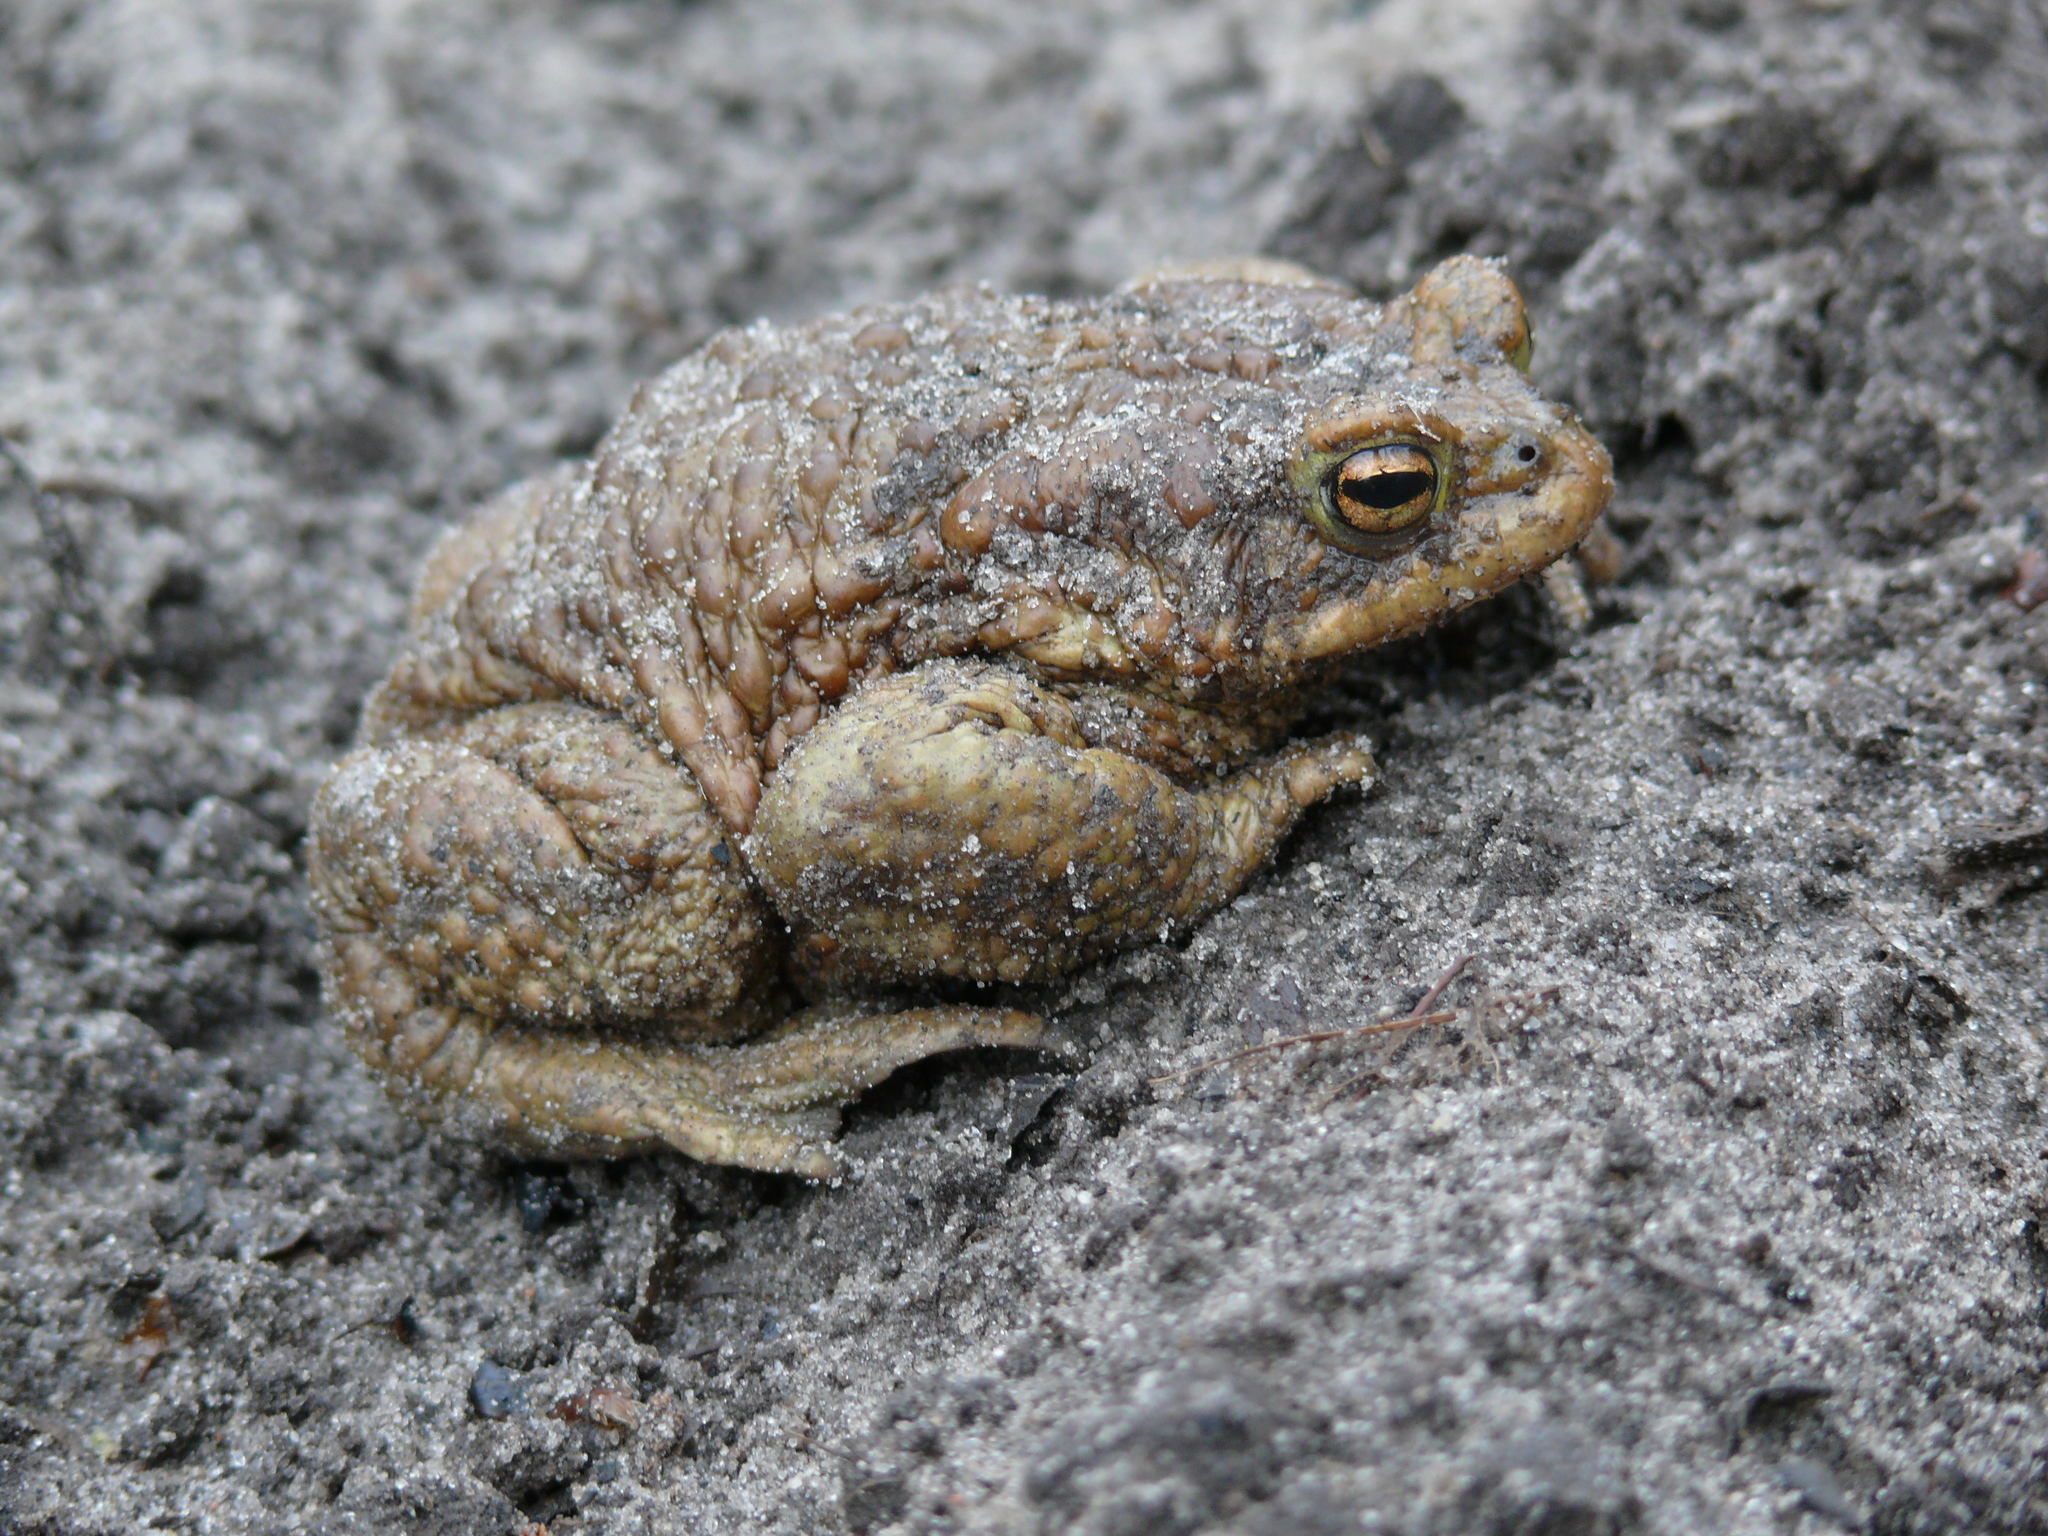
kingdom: Animalia
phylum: Chordata
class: Amphibia
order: Anura
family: Bufonidae
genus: Bufo
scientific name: Bufo bufo
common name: Common toad
